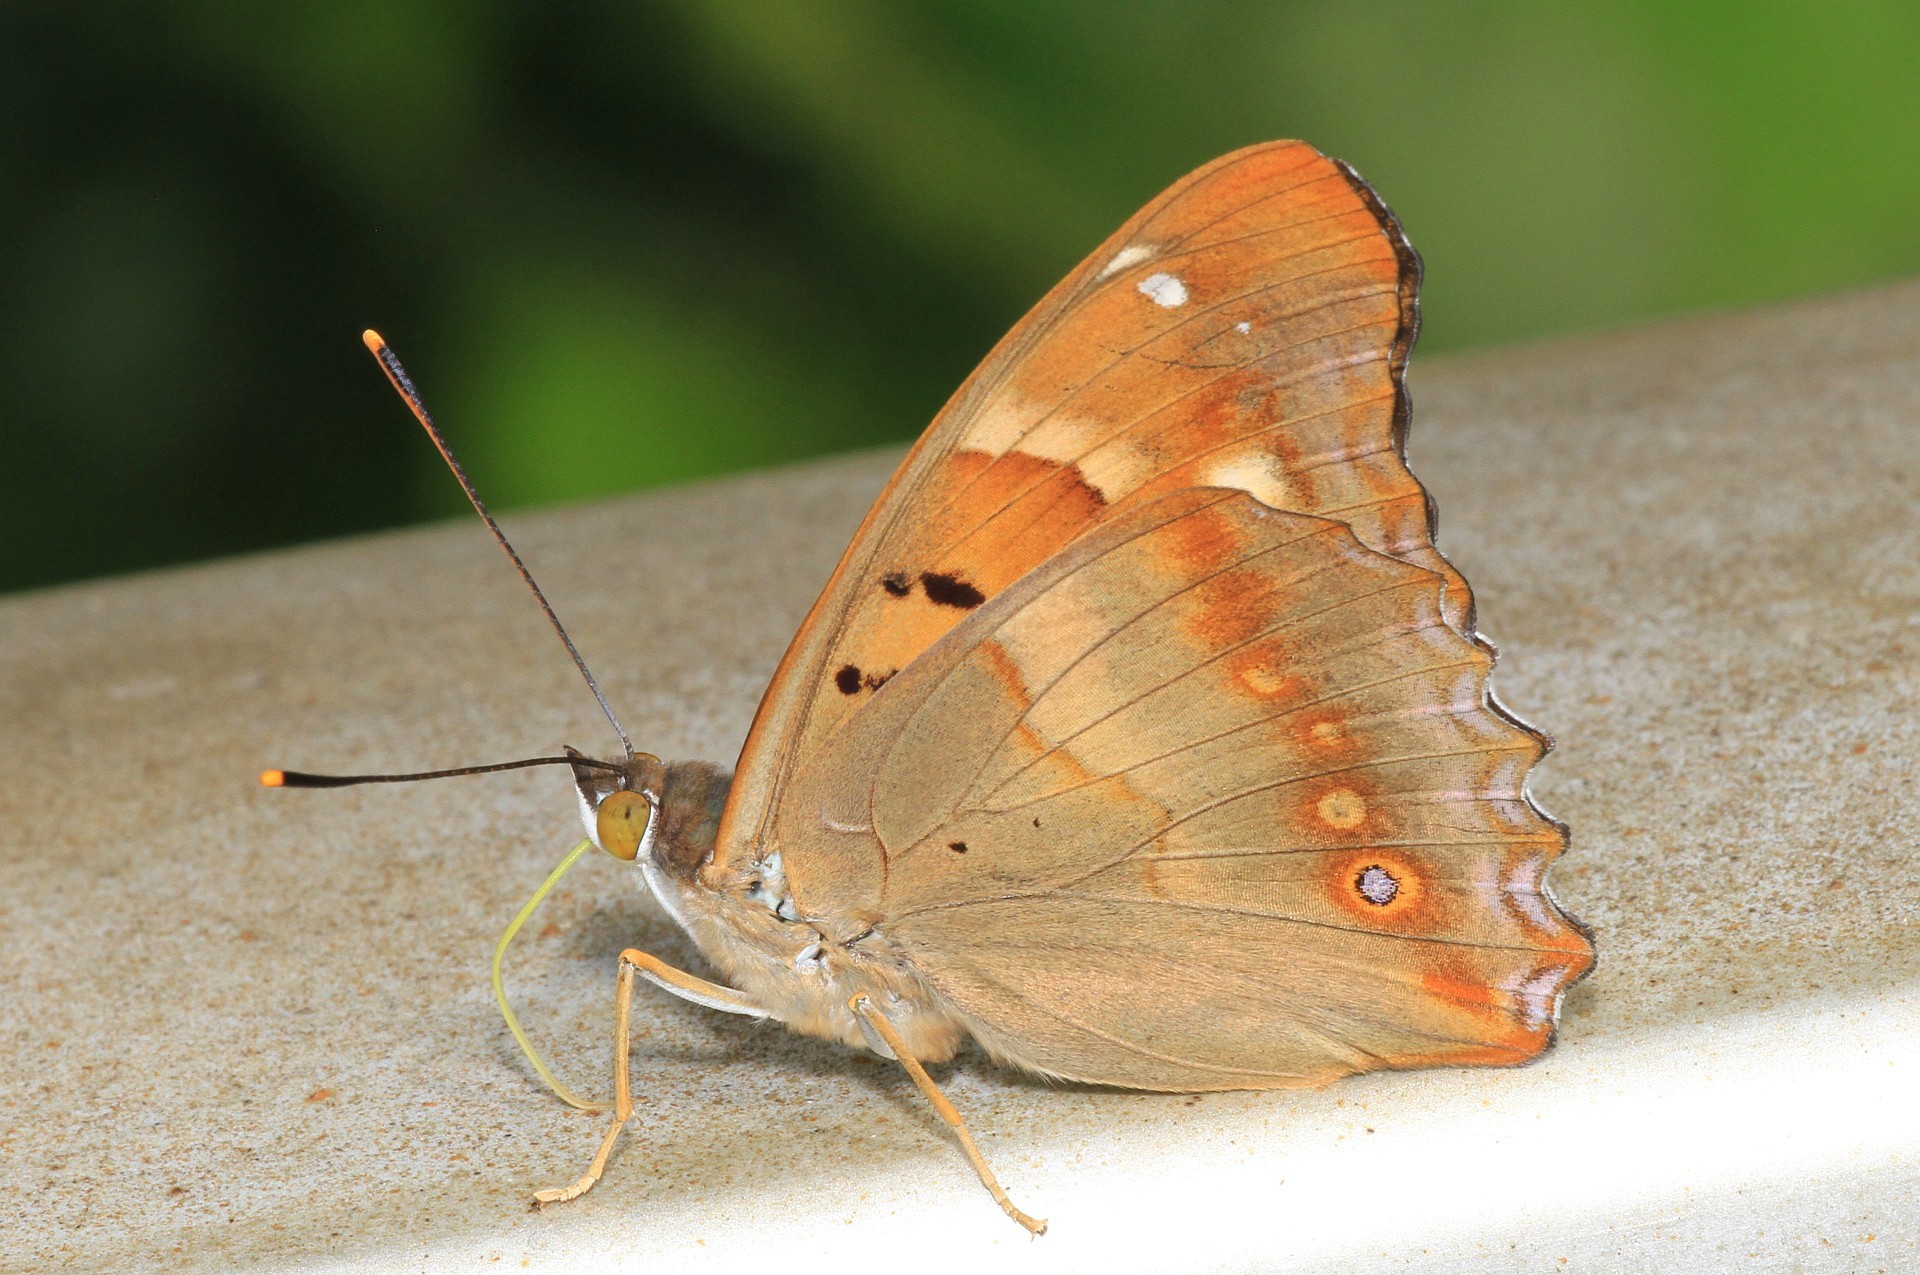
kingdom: Animalia
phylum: Arthropoda
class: Insecta
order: Lepidoptera
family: Nymphalidae
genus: Apatura
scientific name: Apatura ilia
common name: Lesser purple emperor
